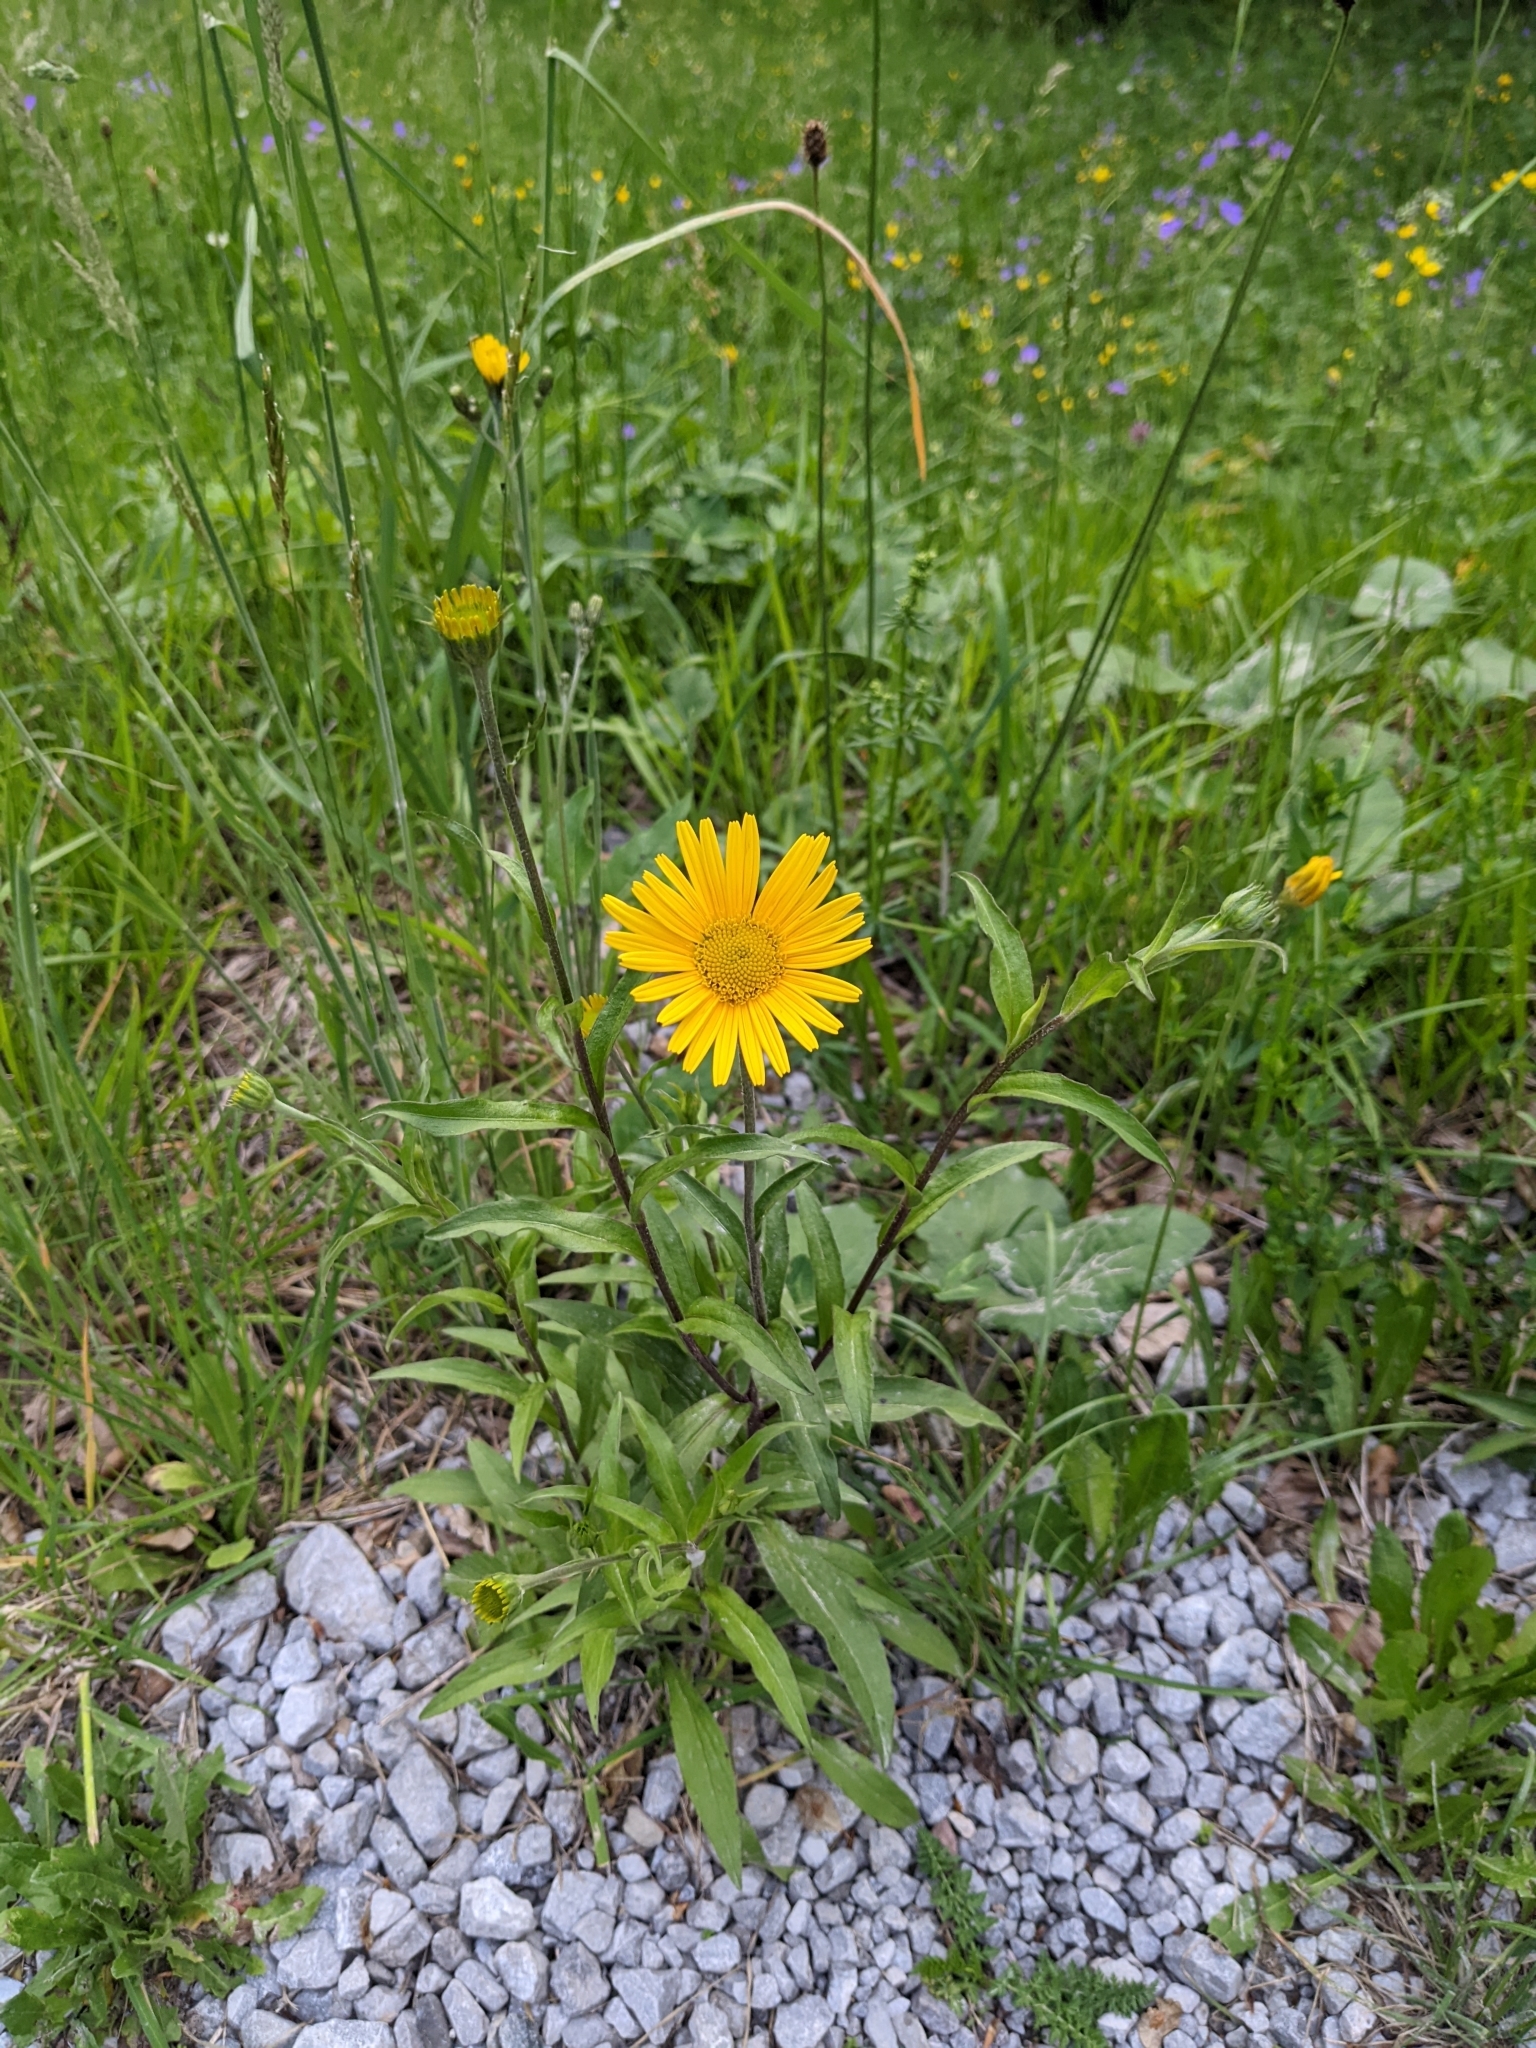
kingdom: Plantae
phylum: Tracheophyta
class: Magnoliopsida
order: Asterales
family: Asteraceae
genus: Buphthalmum
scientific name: Buphthalmum salicifolium
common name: Willow-leaved yellow-oxeye
